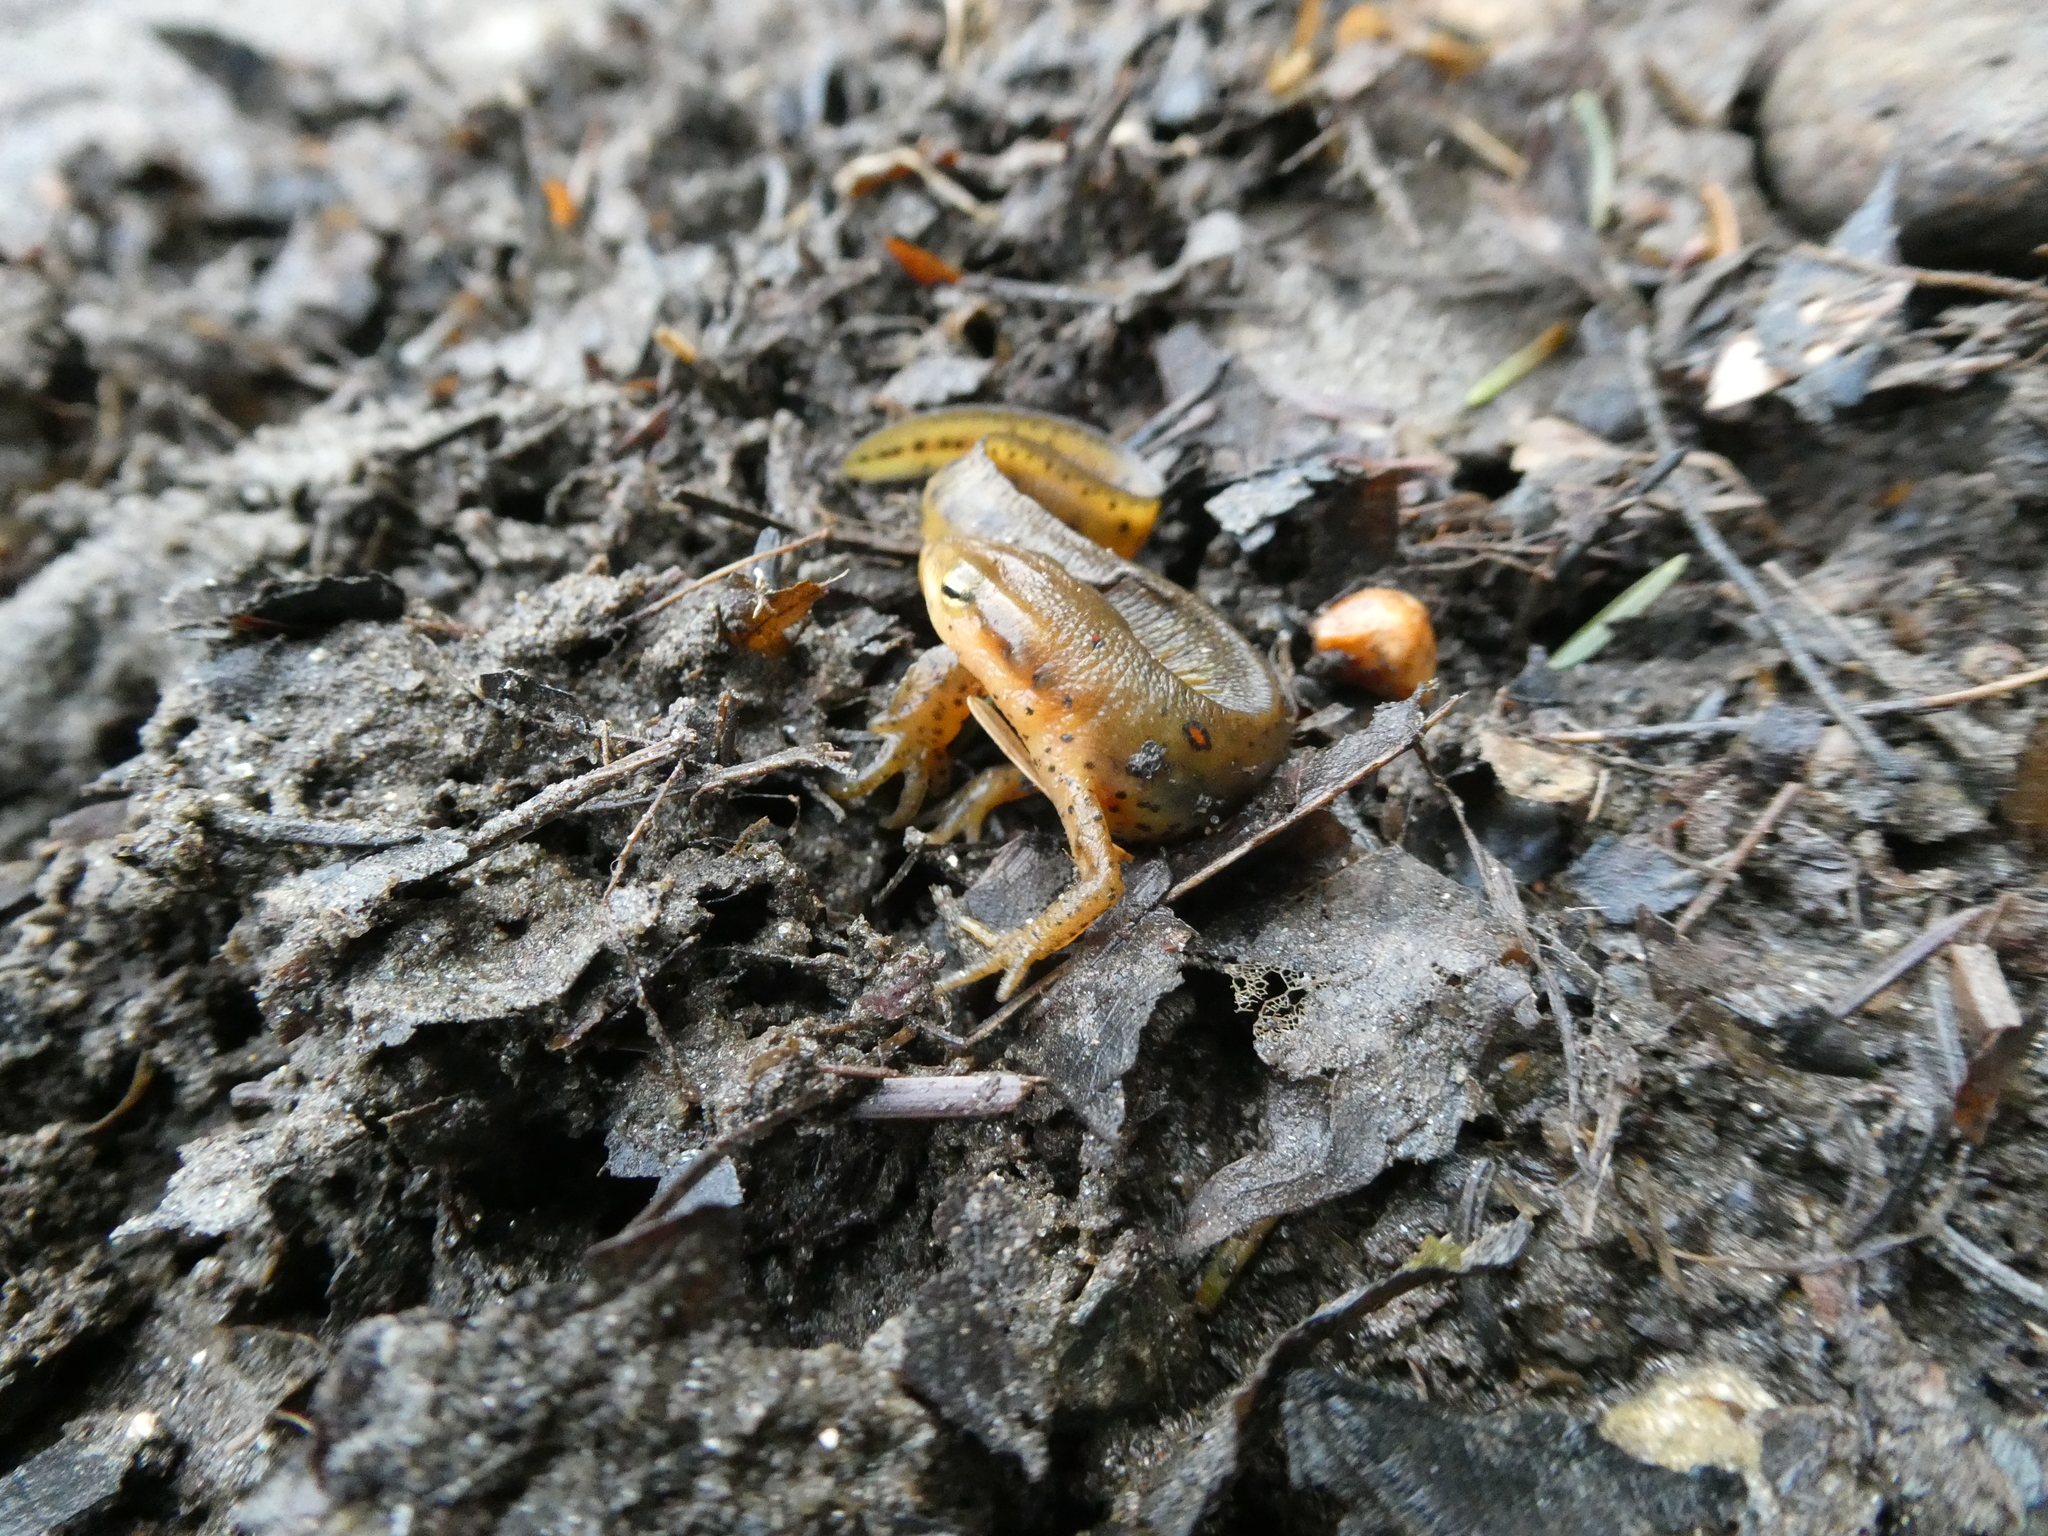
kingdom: Animalia
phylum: Chordata
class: Amphibia
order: Caudata
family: Salamandridae
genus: Notophthalmus
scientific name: Notophthalmus viridescens
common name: Eastern newt
